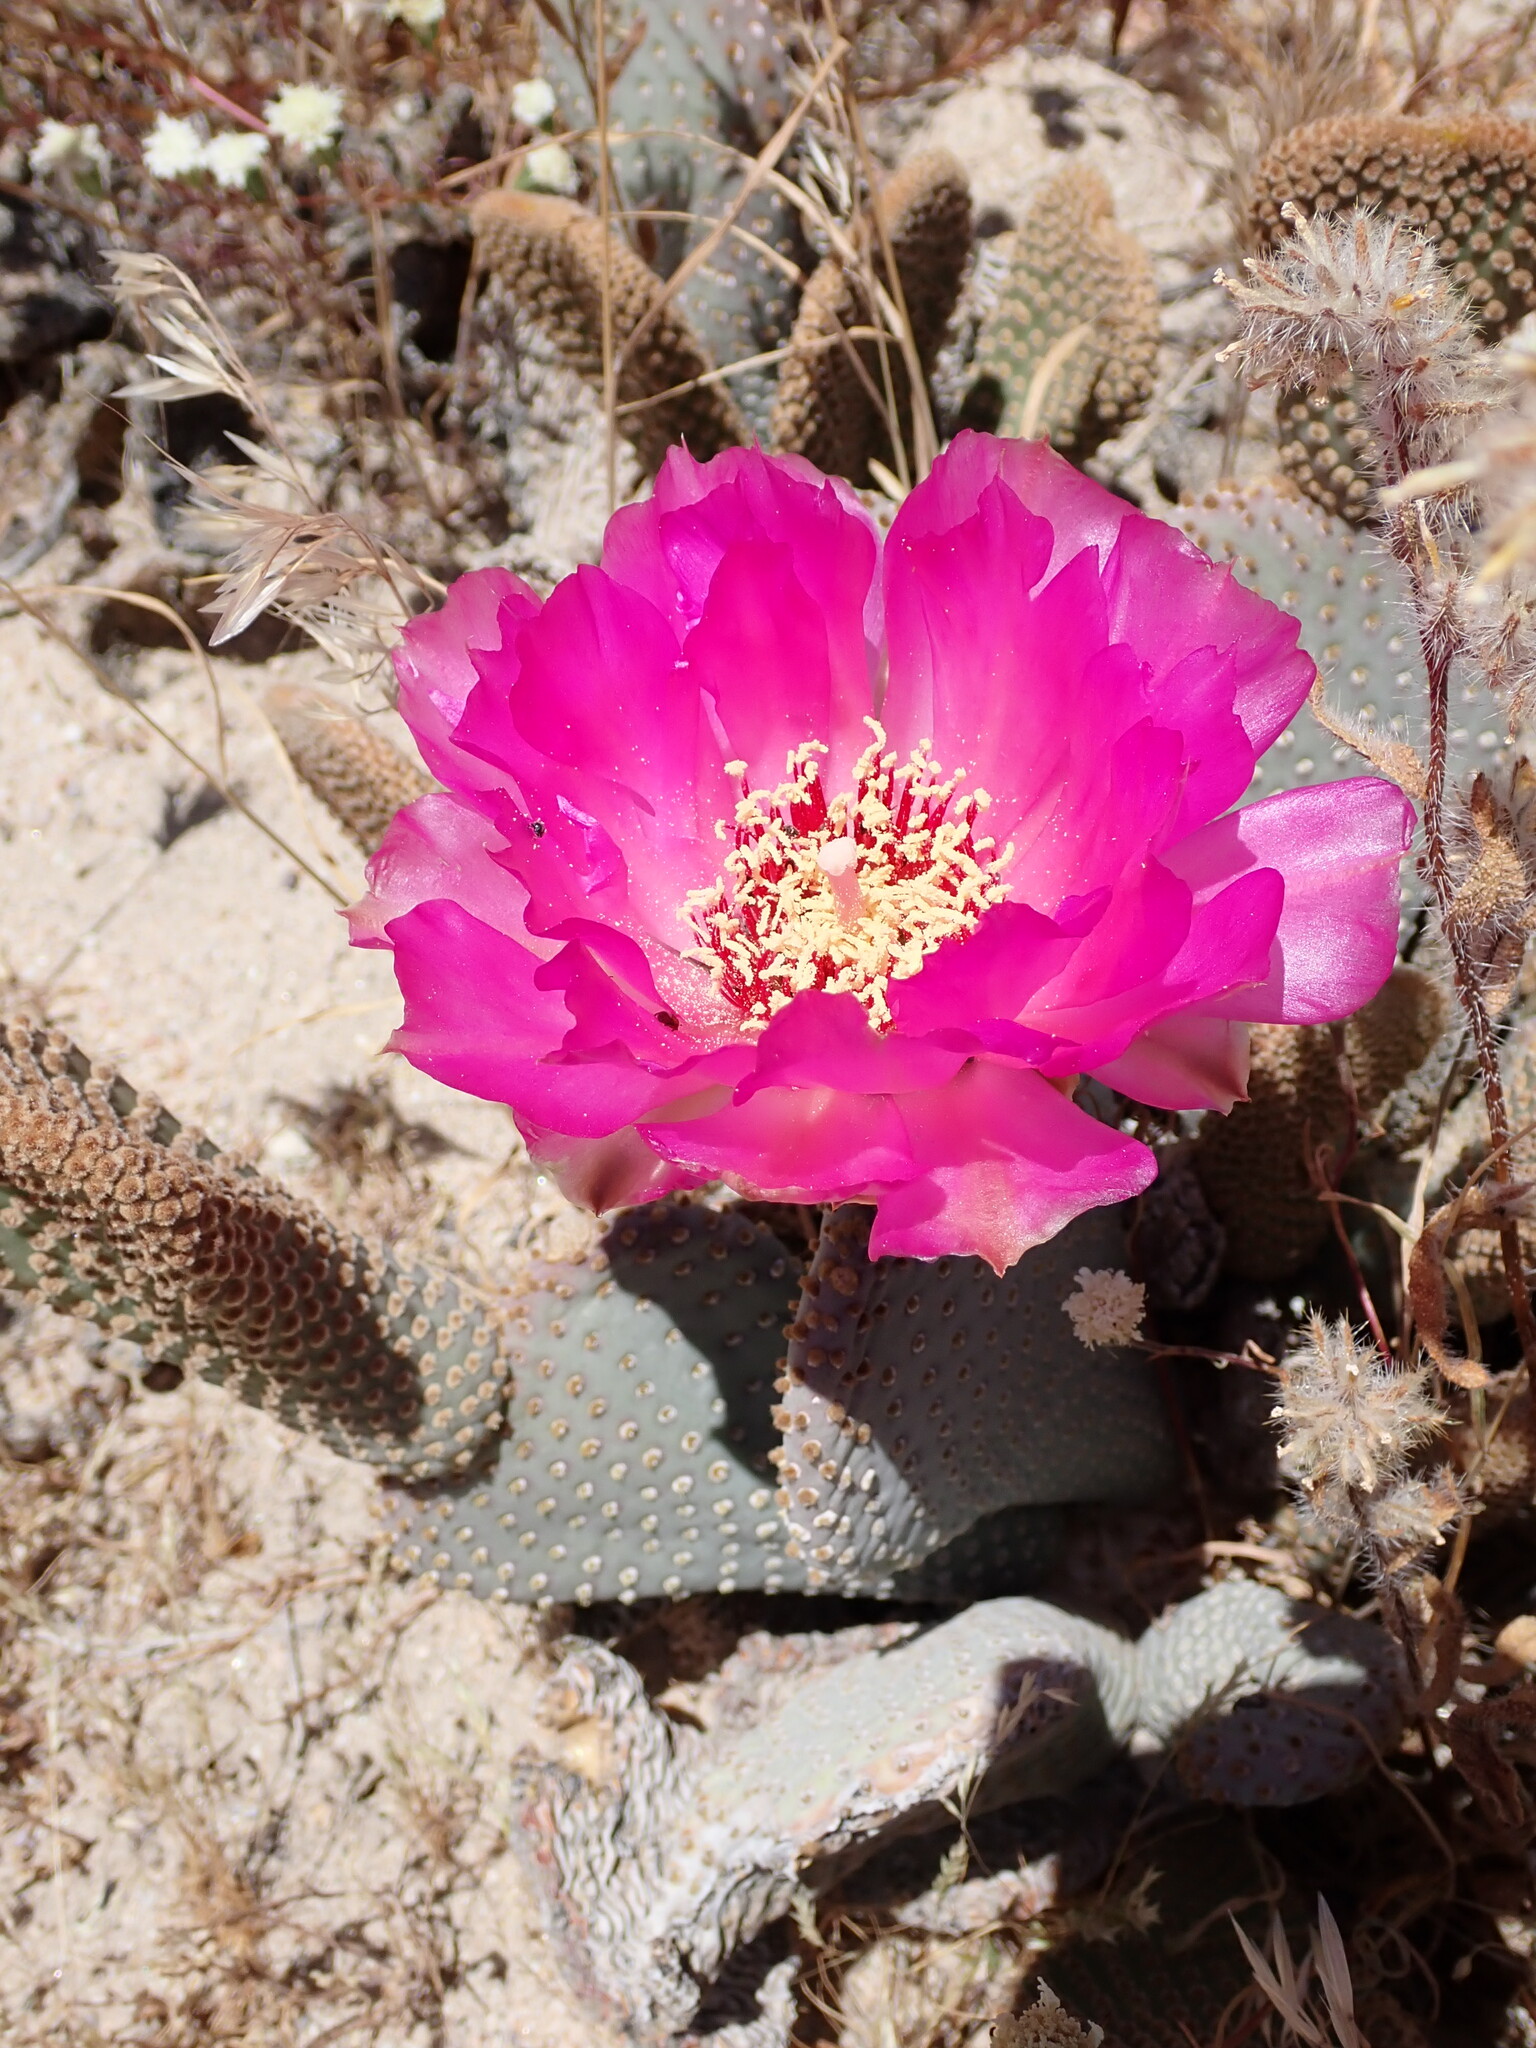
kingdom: Plantae
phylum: Tracheophyta
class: Magnoliopsida
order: Caryophyllales
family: Cactaceae
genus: Opuntia
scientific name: Opuntia basilaris
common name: Beavertail prickly-pear
